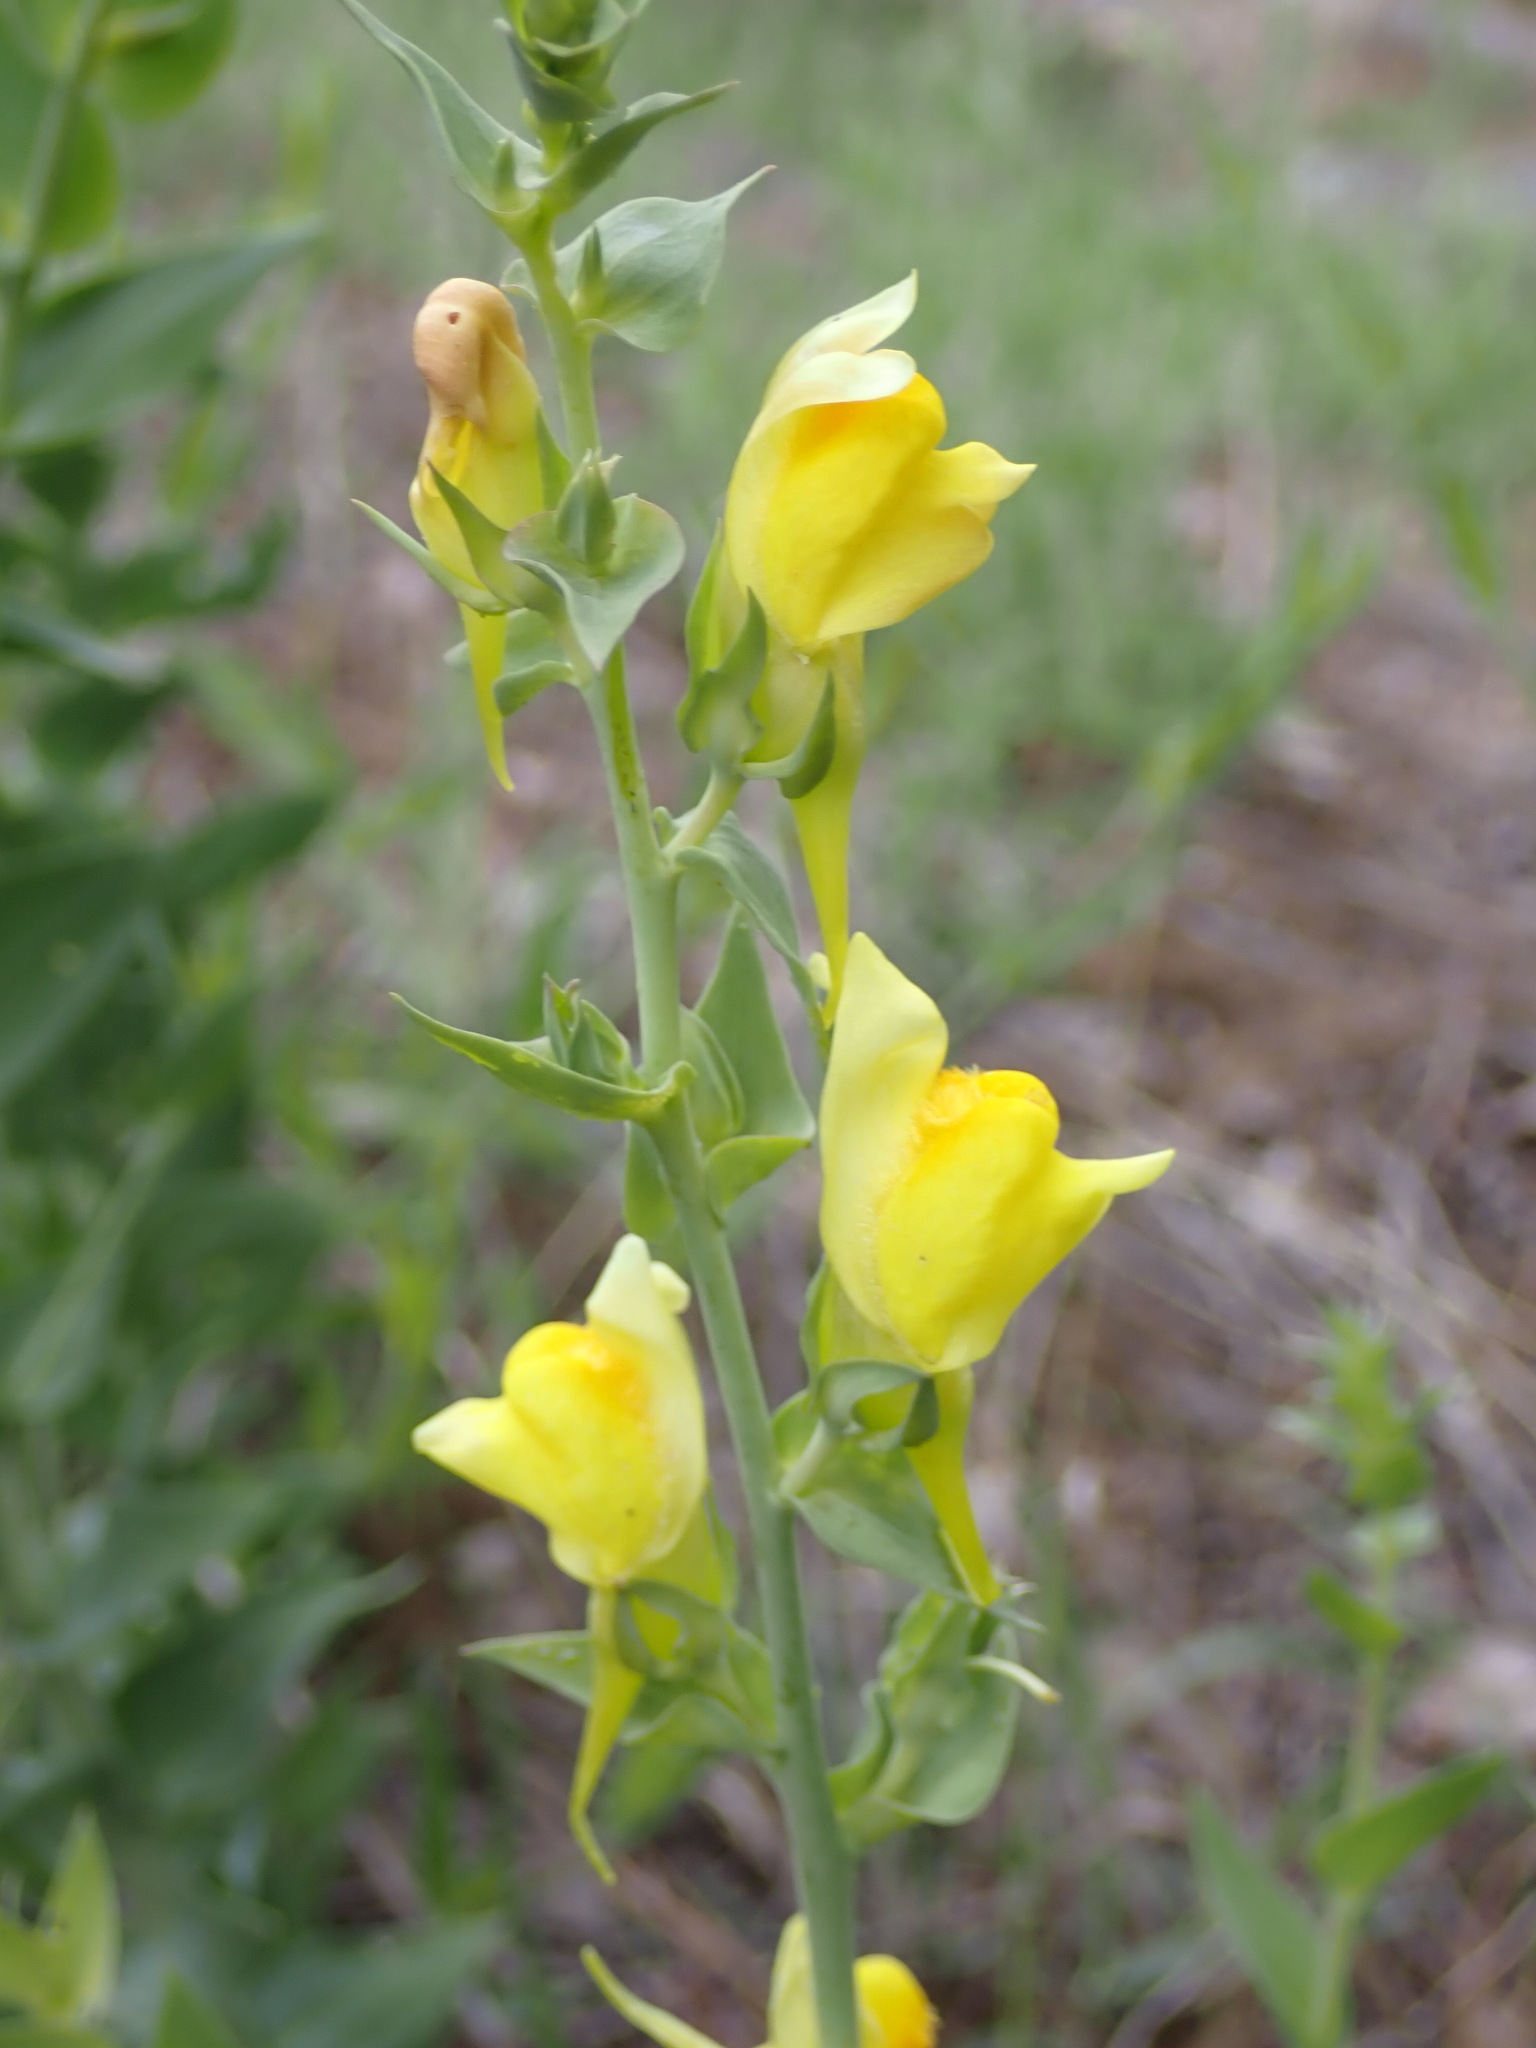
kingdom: Plantae
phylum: Tracheophyta
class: Magnoliopsida
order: Lamiales
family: Plantaginaceae
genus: Linaria
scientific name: Linaria dalmatica
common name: Dalmatian toadflax
